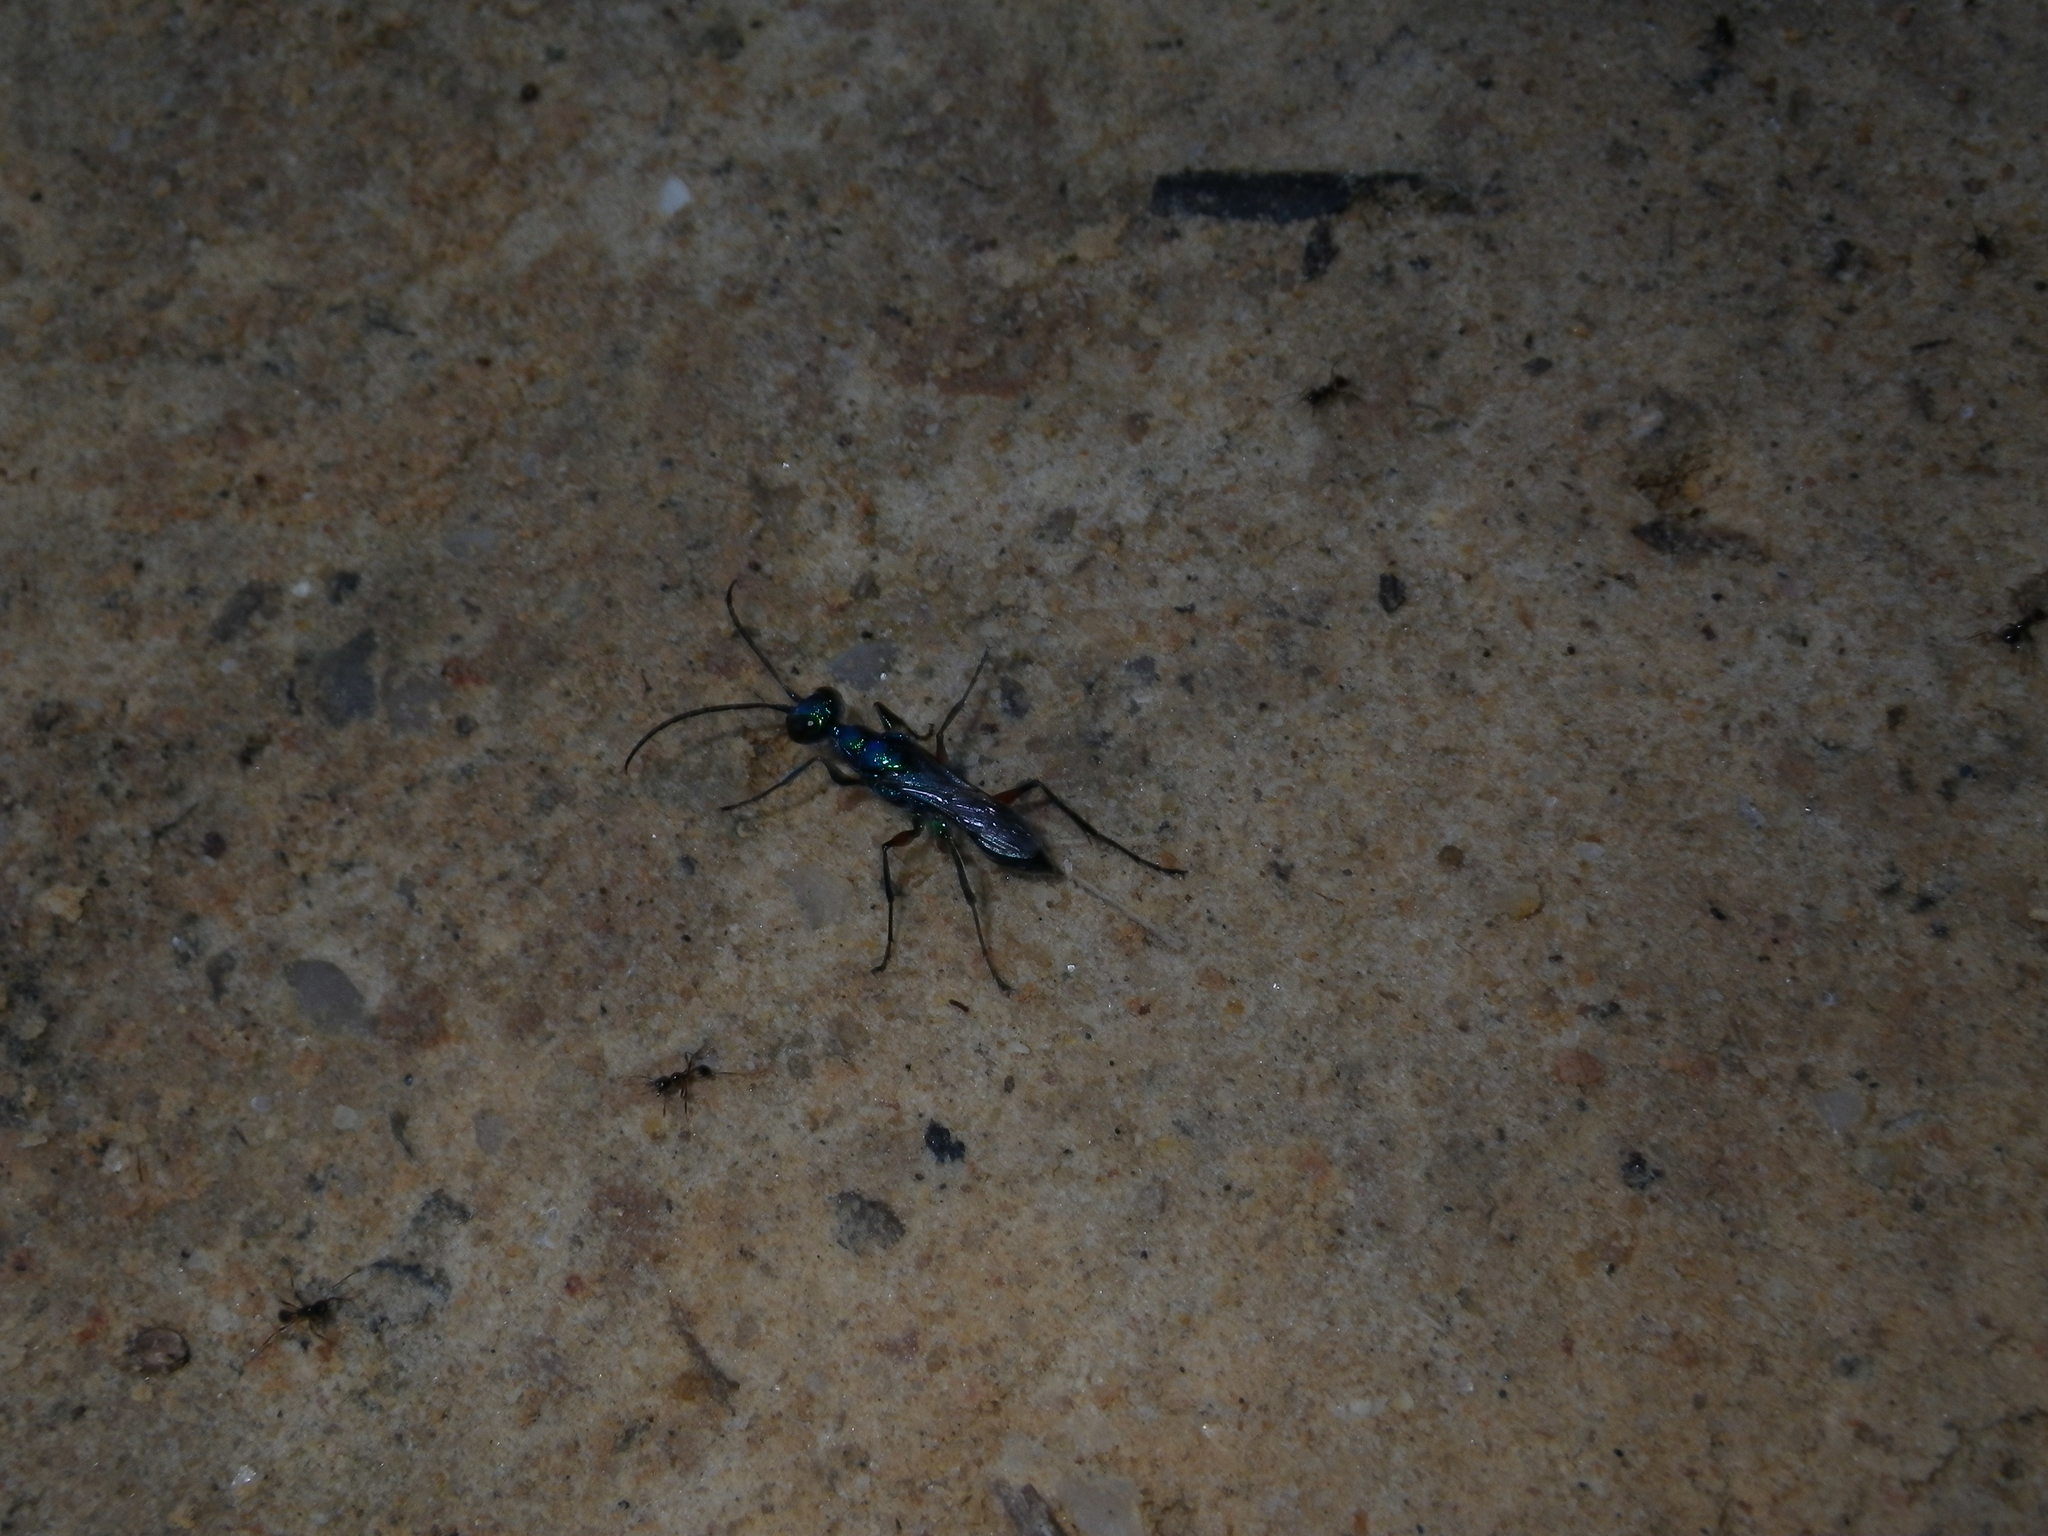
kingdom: Animalia
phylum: Arthropoda
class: Insecta
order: Hymenoptera
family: Ampulicidae
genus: Ampulex
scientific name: Ampulex compressa
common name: Emerald cockroach wasp
